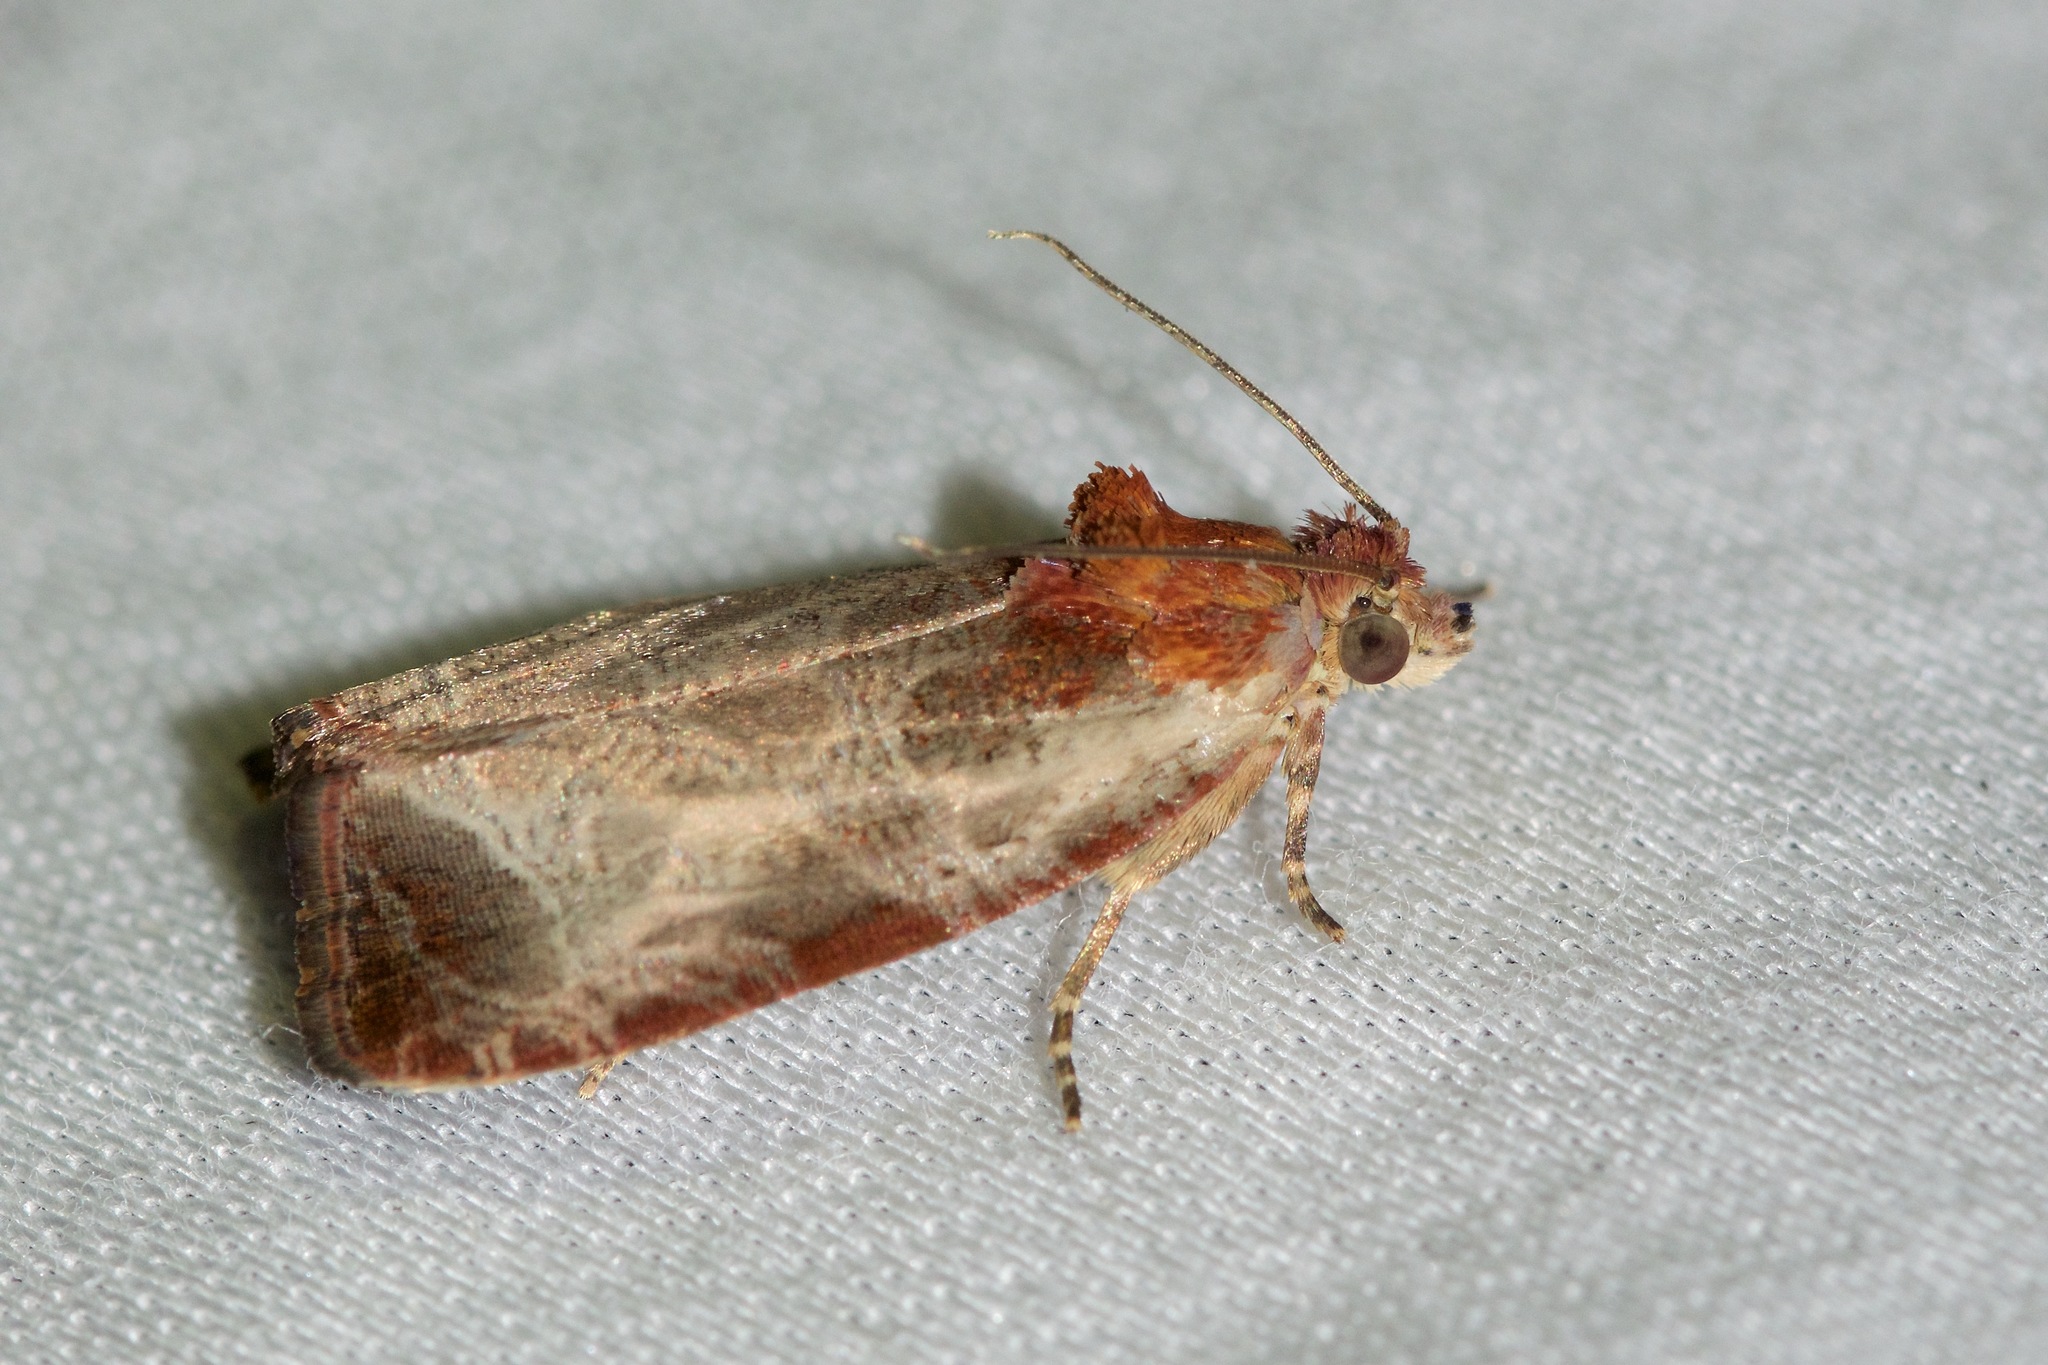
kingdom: Animalia
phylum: Arthropoda
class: Insecta
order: Lepidoptera
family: Tortricidae
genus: Olethreutes
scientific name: Olethreutes inornatana
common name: Inornate olethreutes moth
